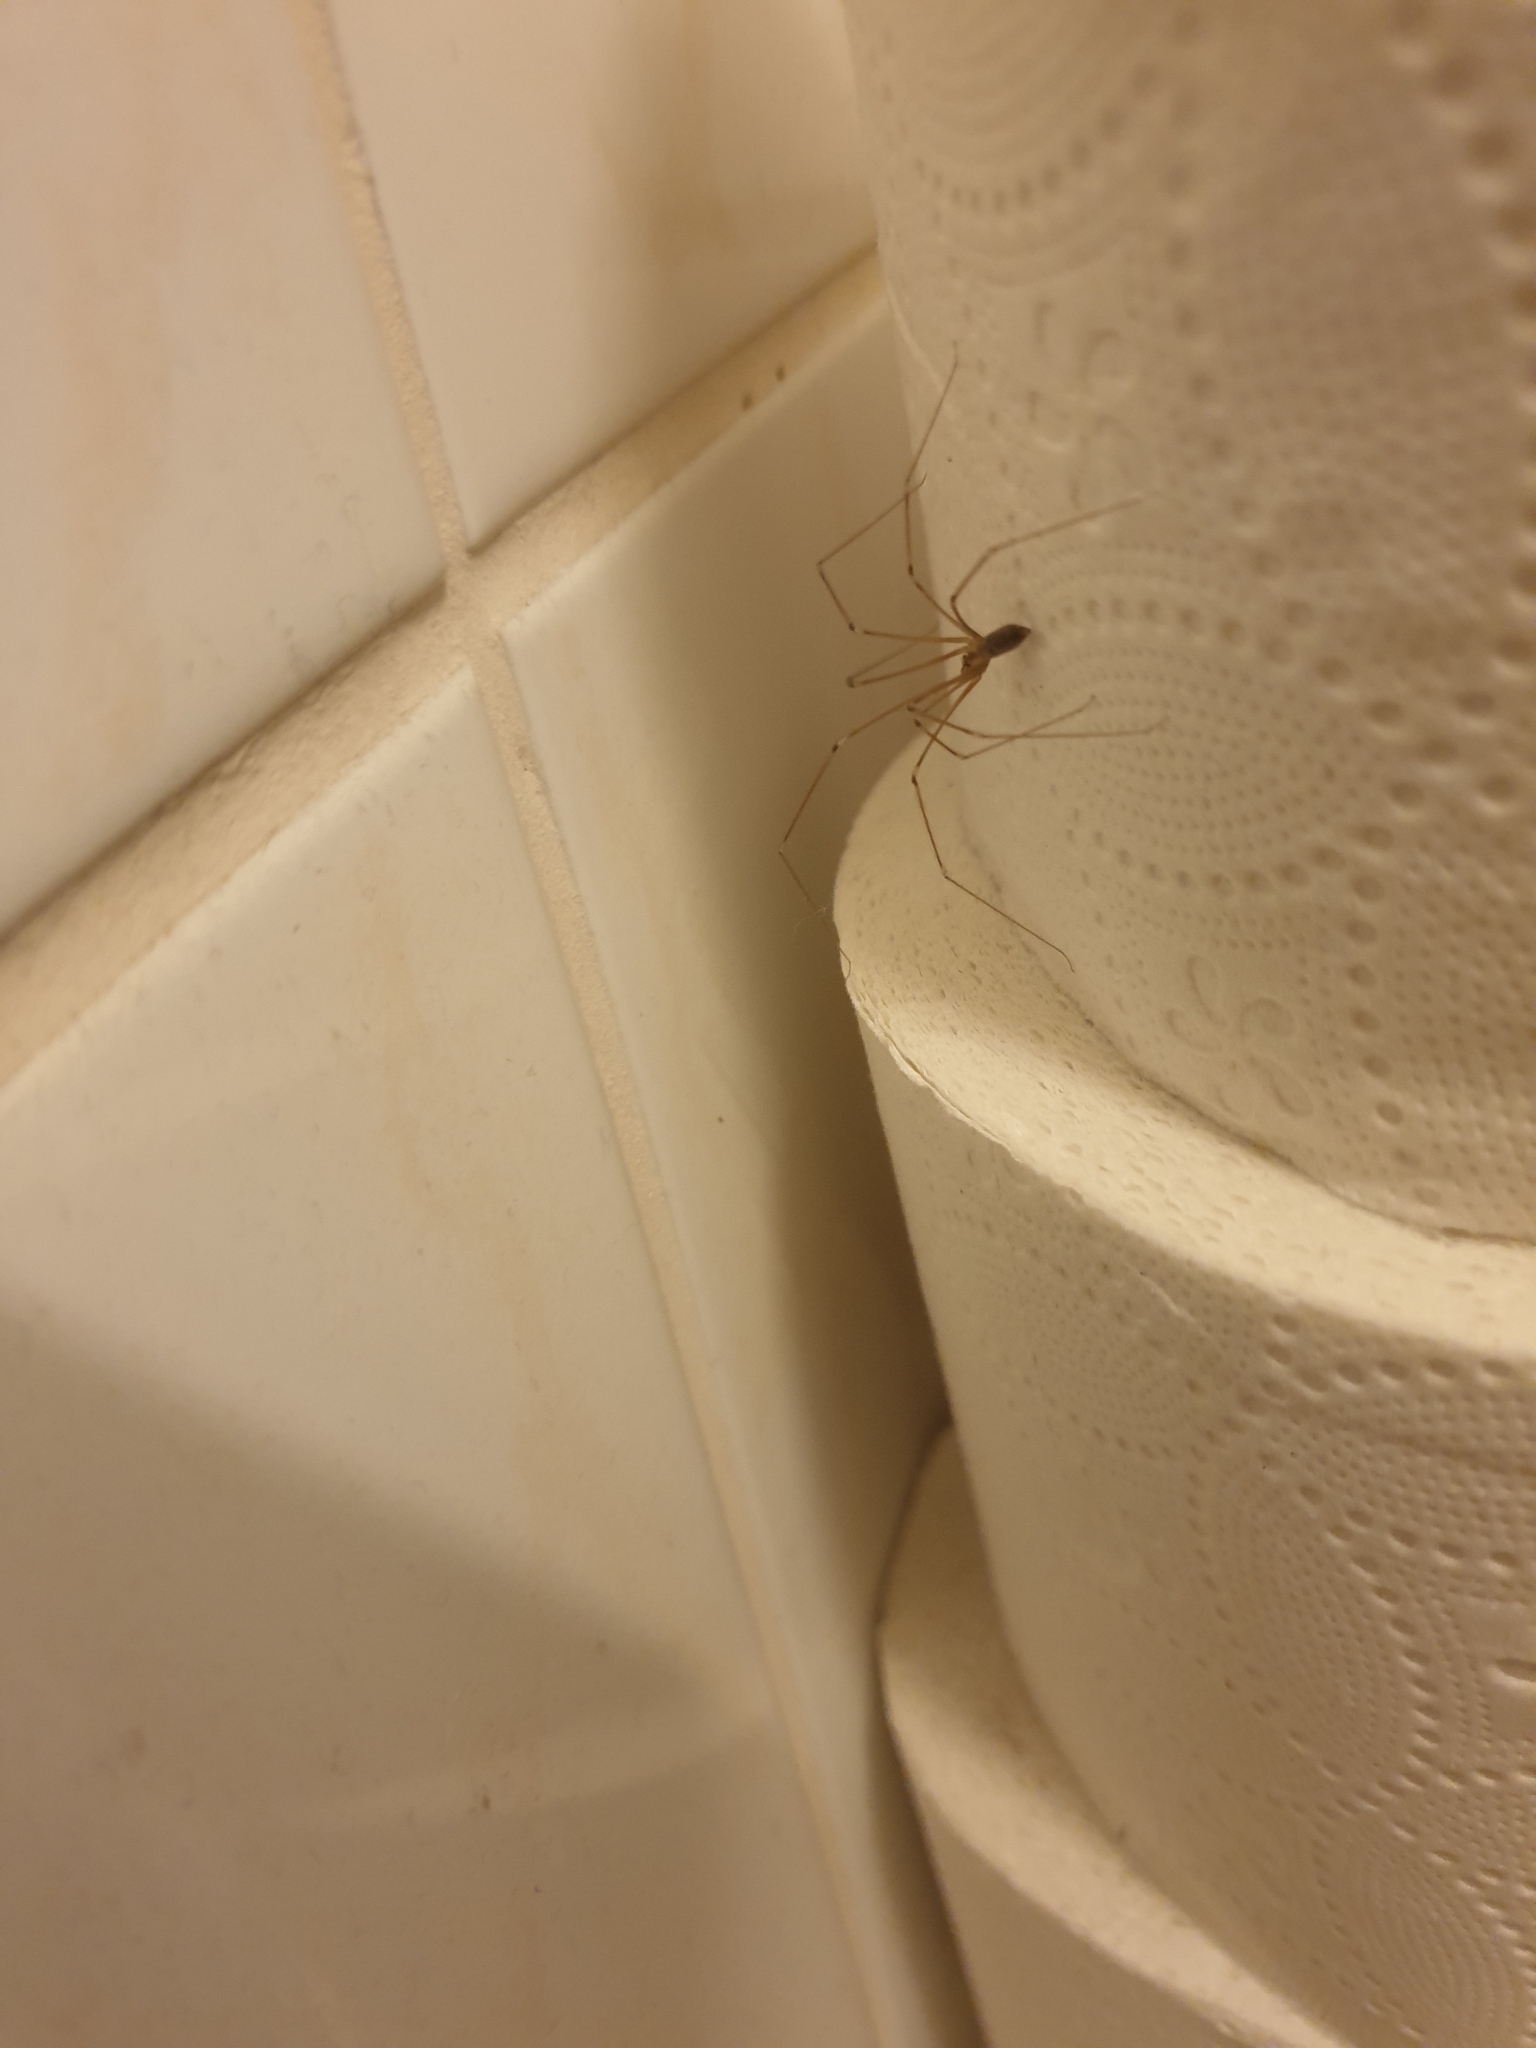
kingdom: Animalia
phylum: Arthropoda
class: Arachnida
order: Araneae
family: Pholcidae
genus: Pholcus
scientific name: Pholcus phalangioides
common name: Longbodied cellar spider
